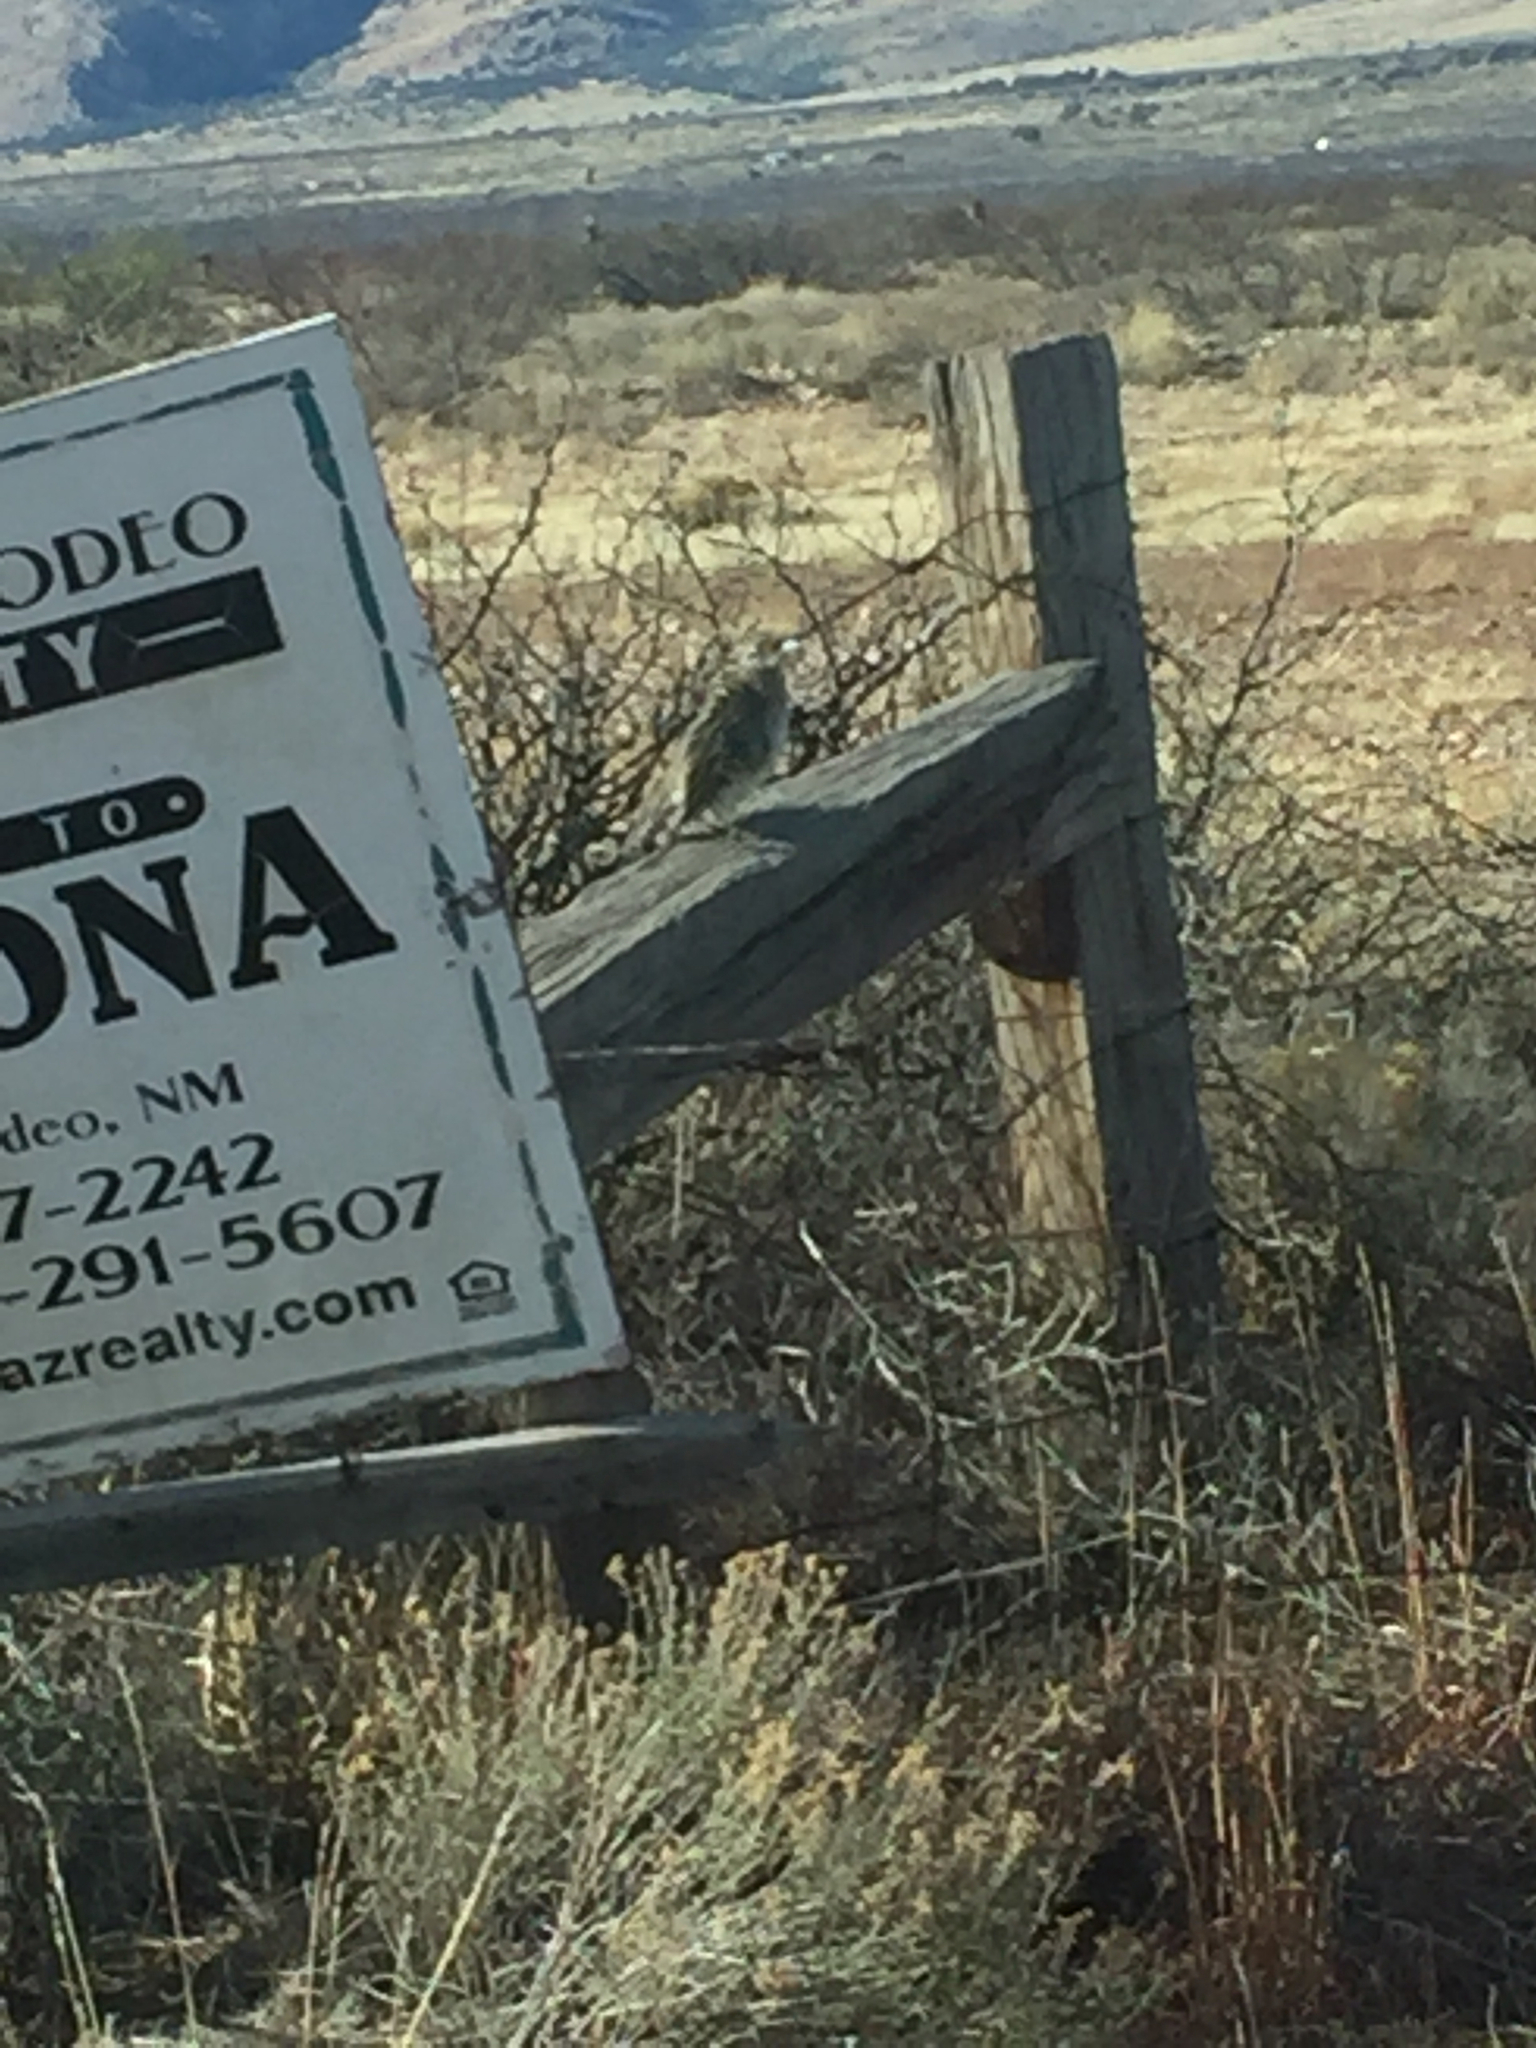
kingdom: Animalia
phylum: Chordata
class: Aves
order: Cuculiformes
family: Cuculidae
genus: Geococcyx
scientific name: Geococcyx californianus
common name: Greater roadrunner
